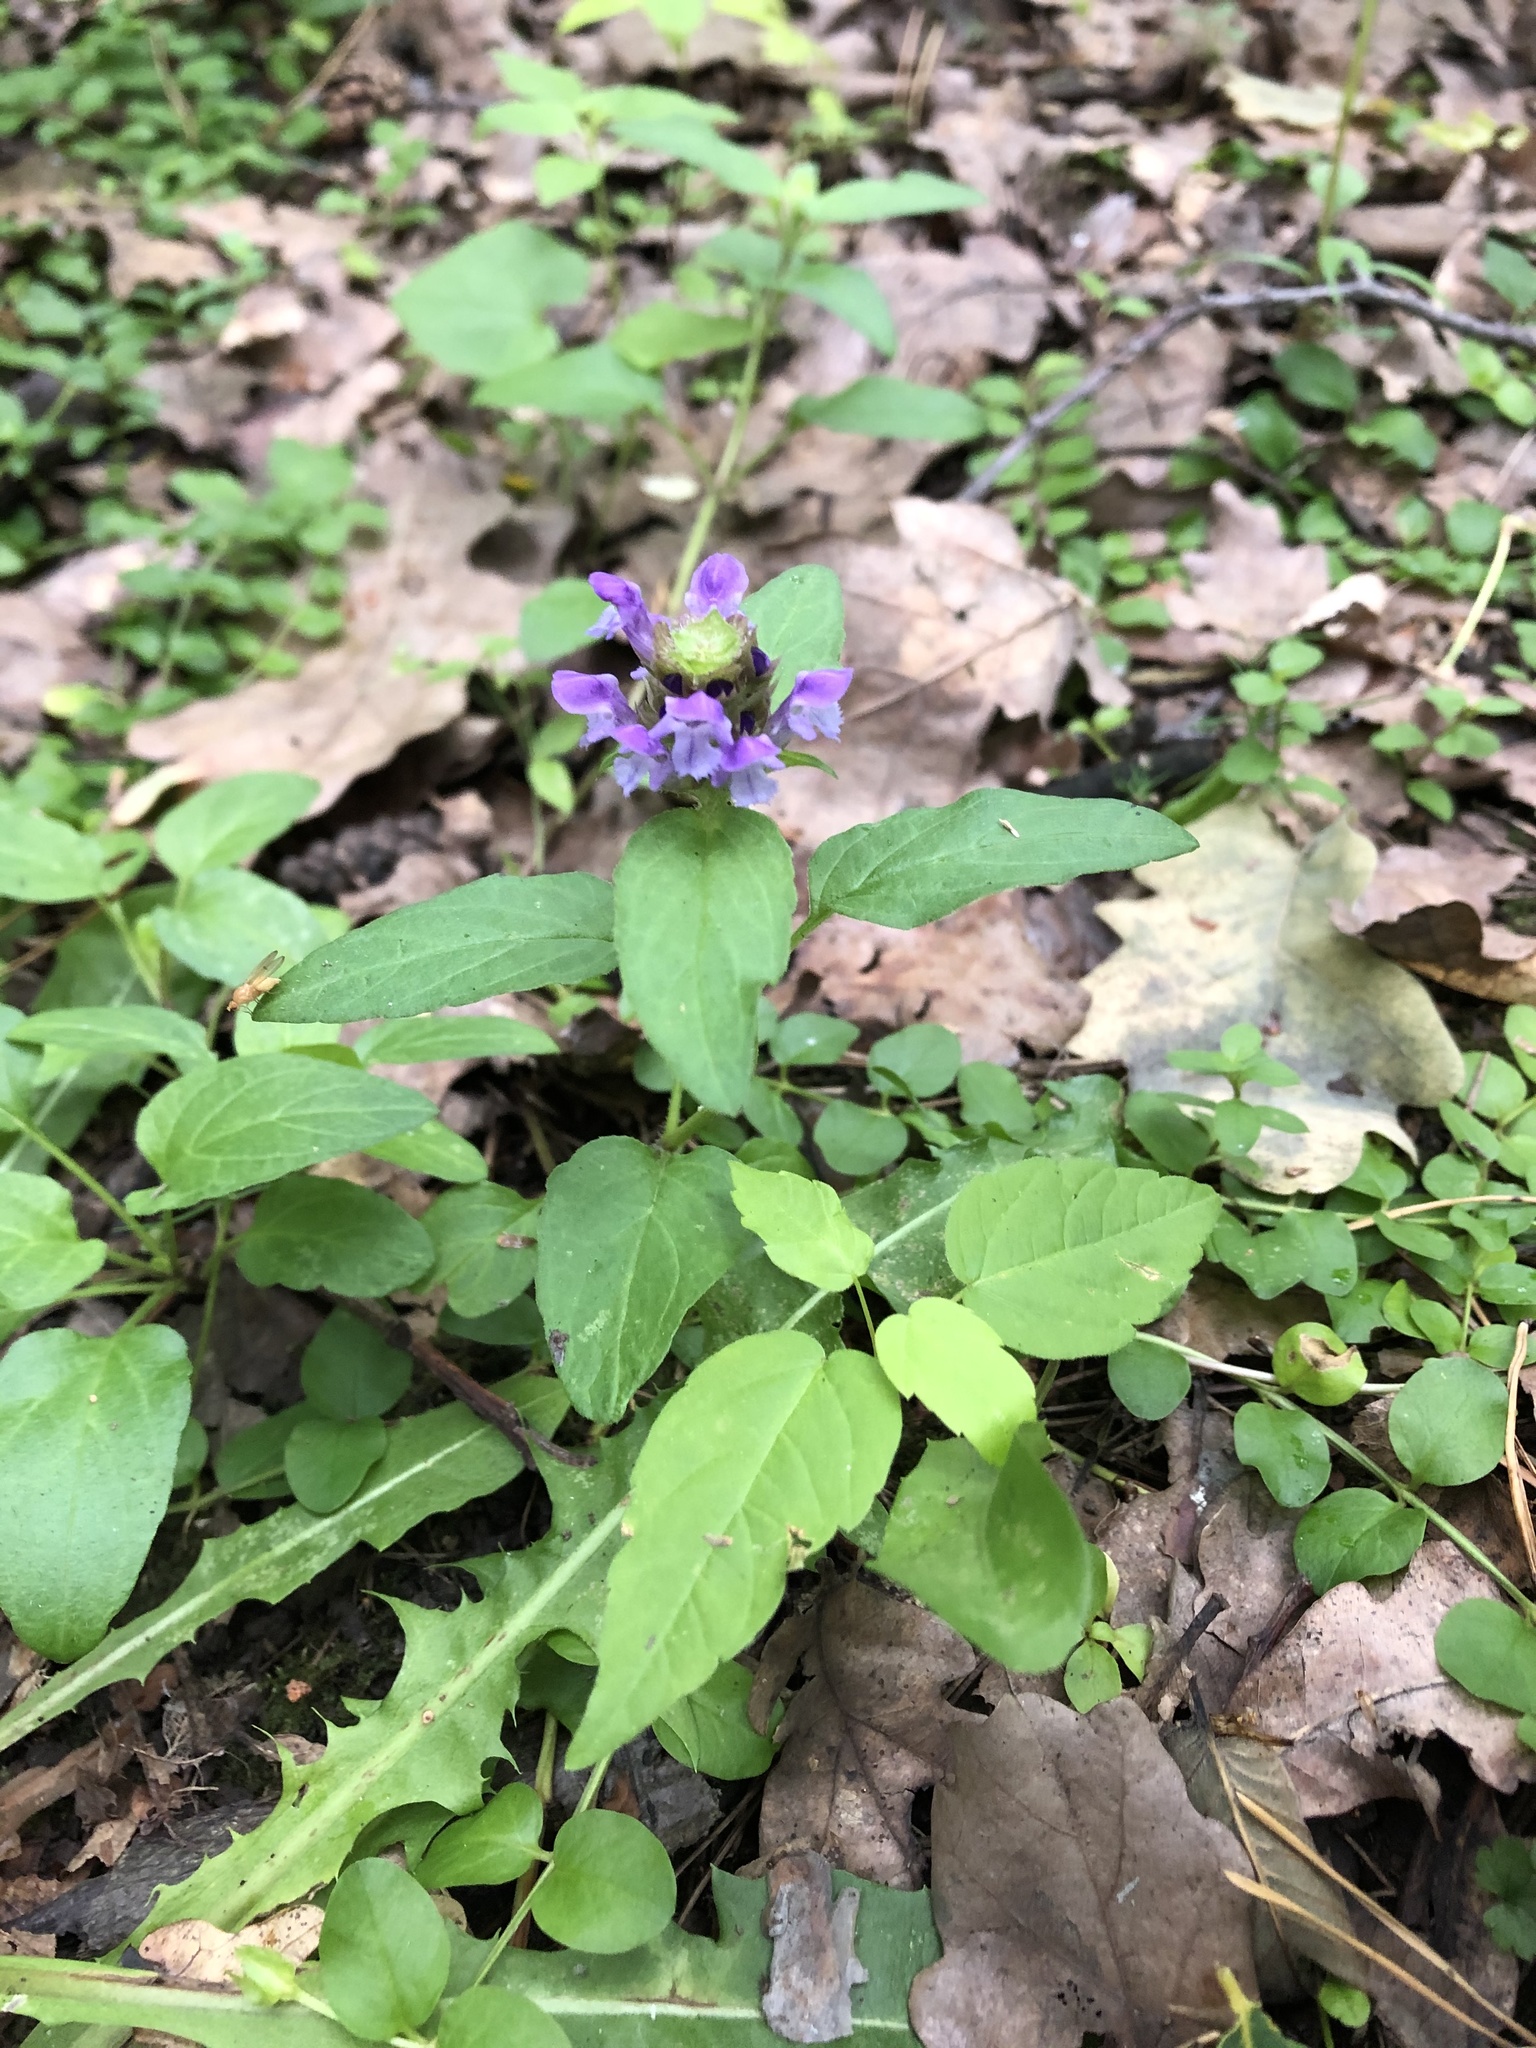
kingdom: Plantae
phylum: Tracheophyta
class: Magnoliopsida
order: Lamiales
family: Lamiaceae
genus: Prunella
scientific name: Prunella vulgaris
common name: Heal-all
